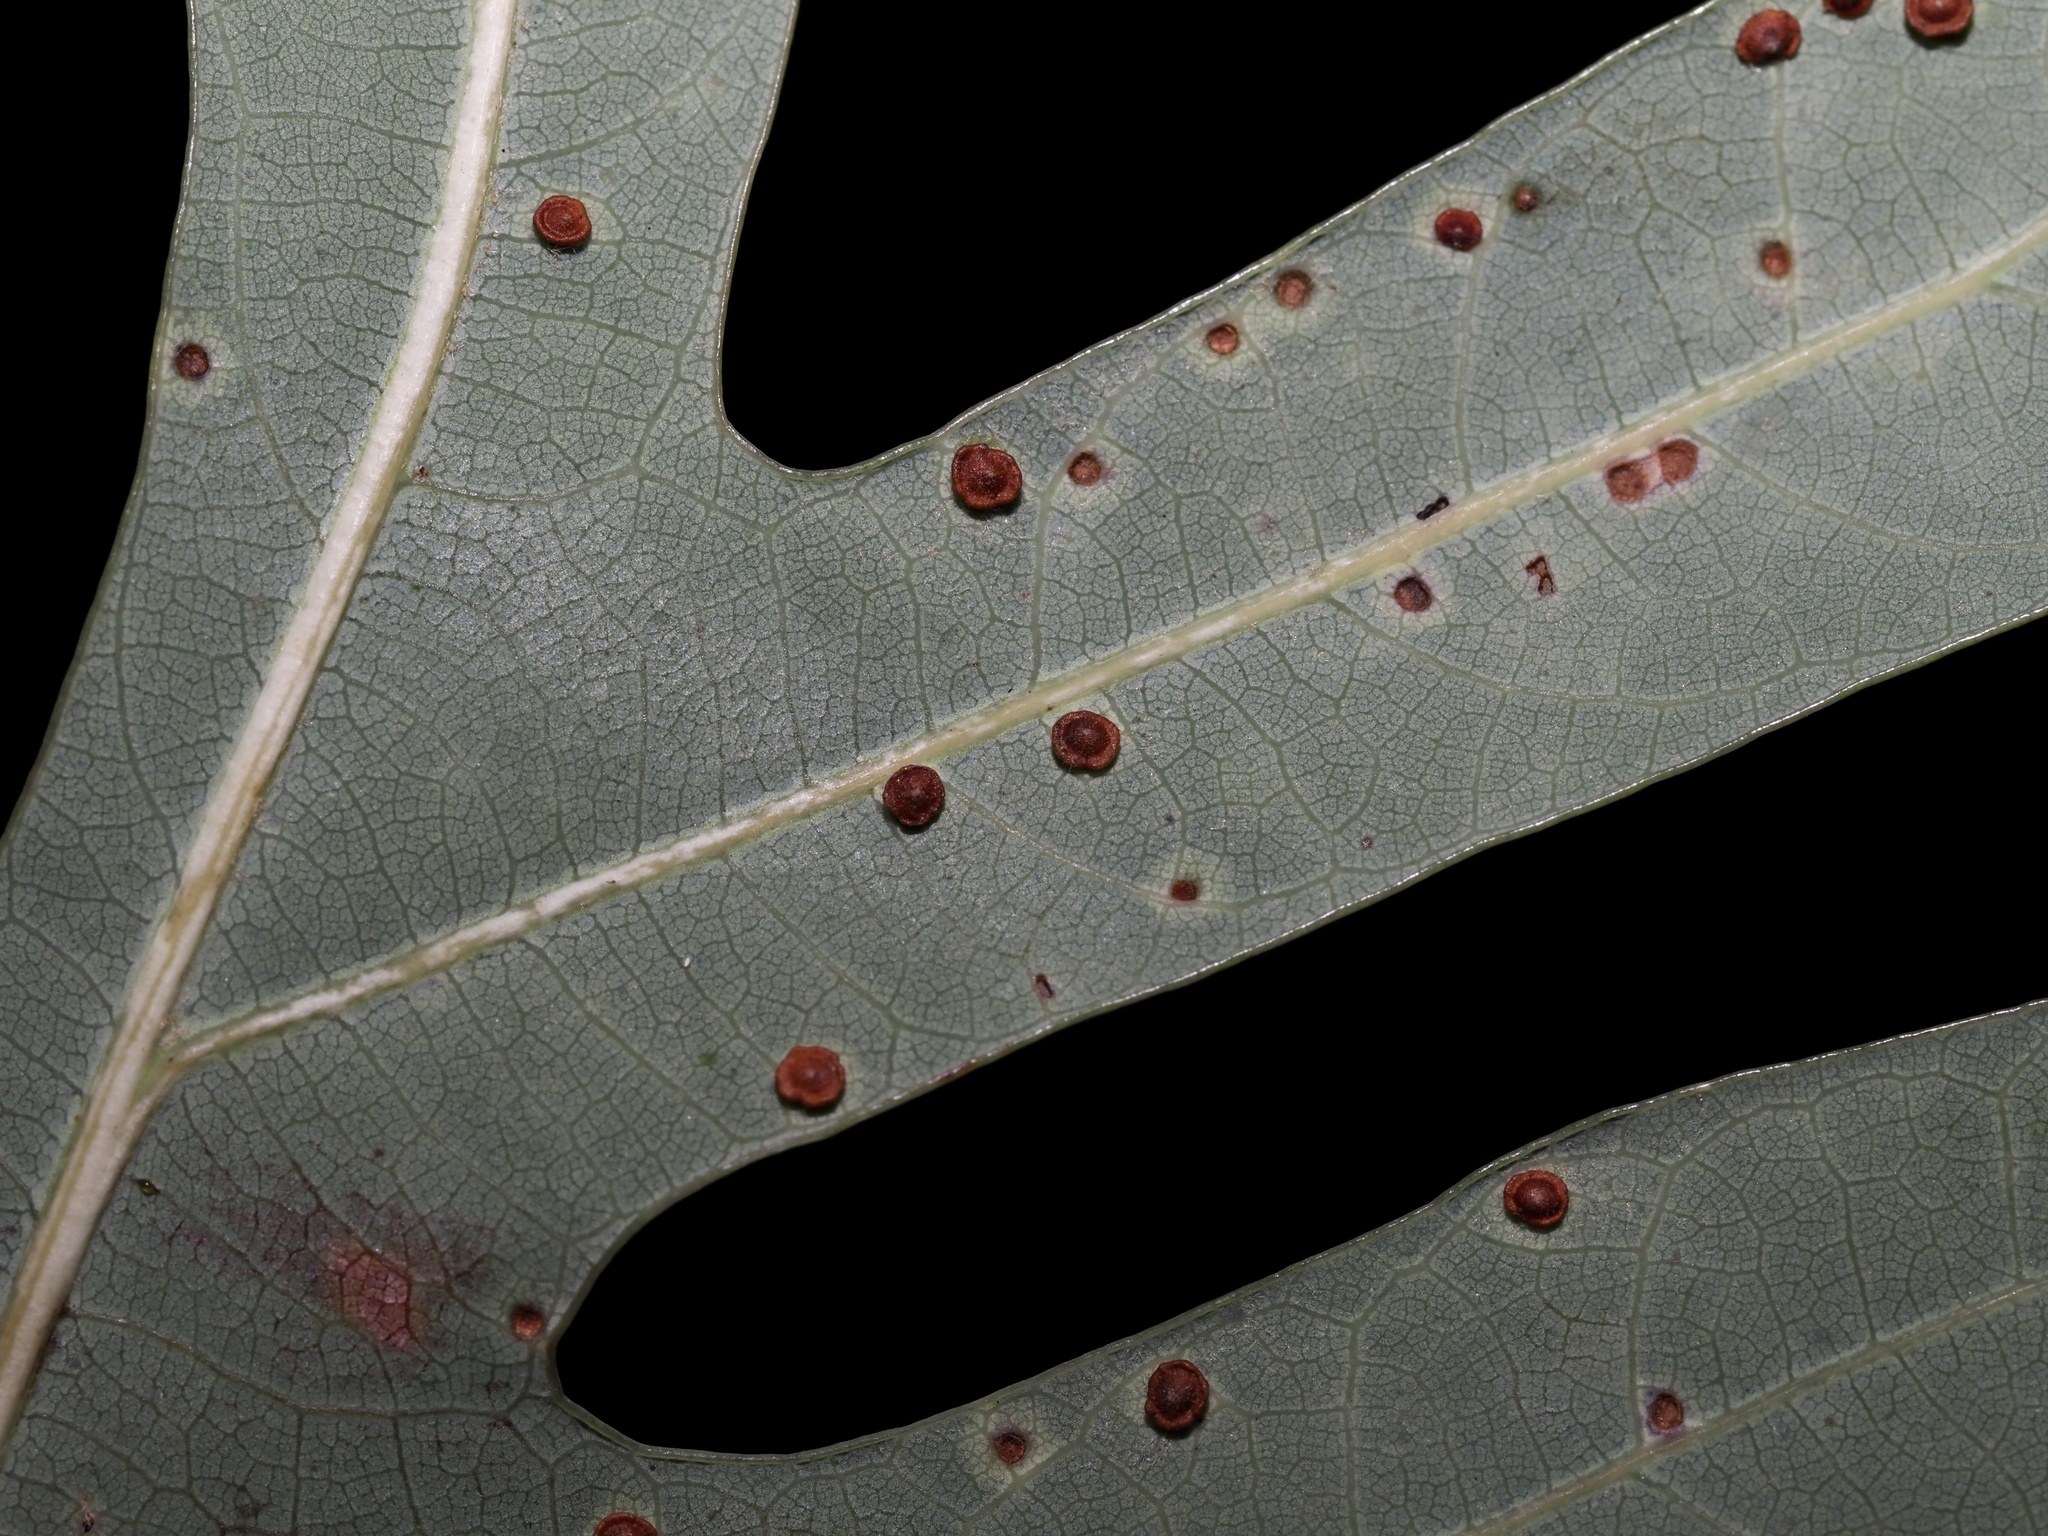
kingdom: Animalia
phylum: Arthropoda
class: Insecta
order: Hymenoptera
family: Cynipidae
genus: Neuroterus
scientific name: Neuroterus
